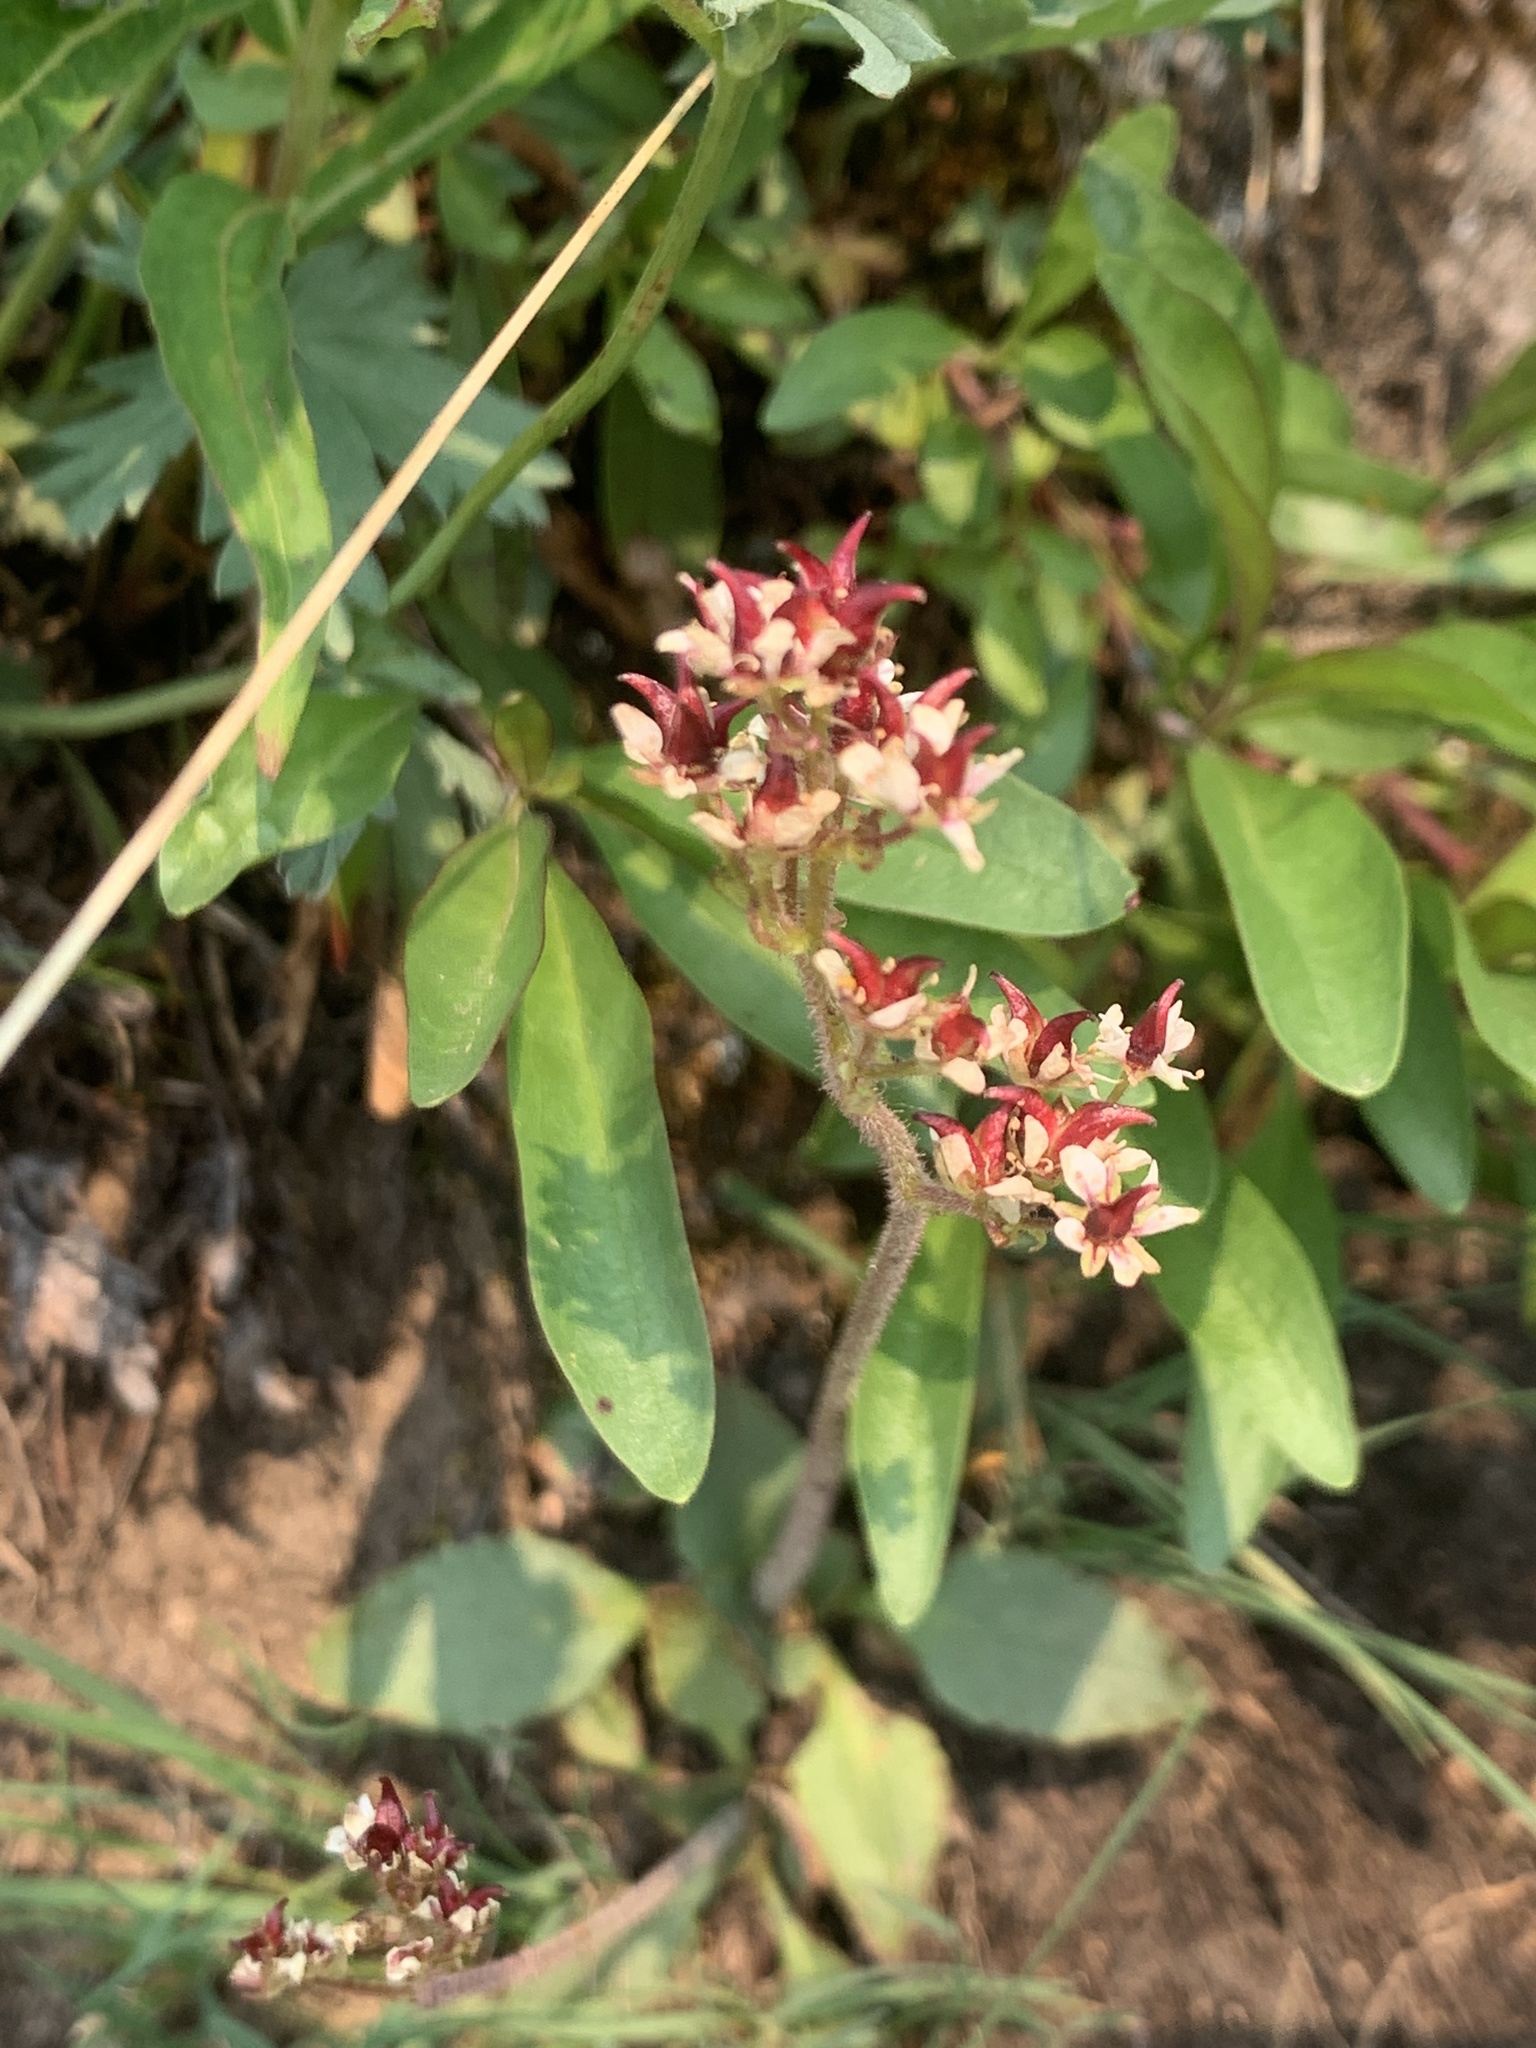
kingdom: Plantae
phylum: Tracheophyta
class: Magnoliopsida
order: Saxifragales
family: Saxifragaceae
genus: Micranthes
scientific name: Micranthes occidentalis
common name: Alberta saxifrage
